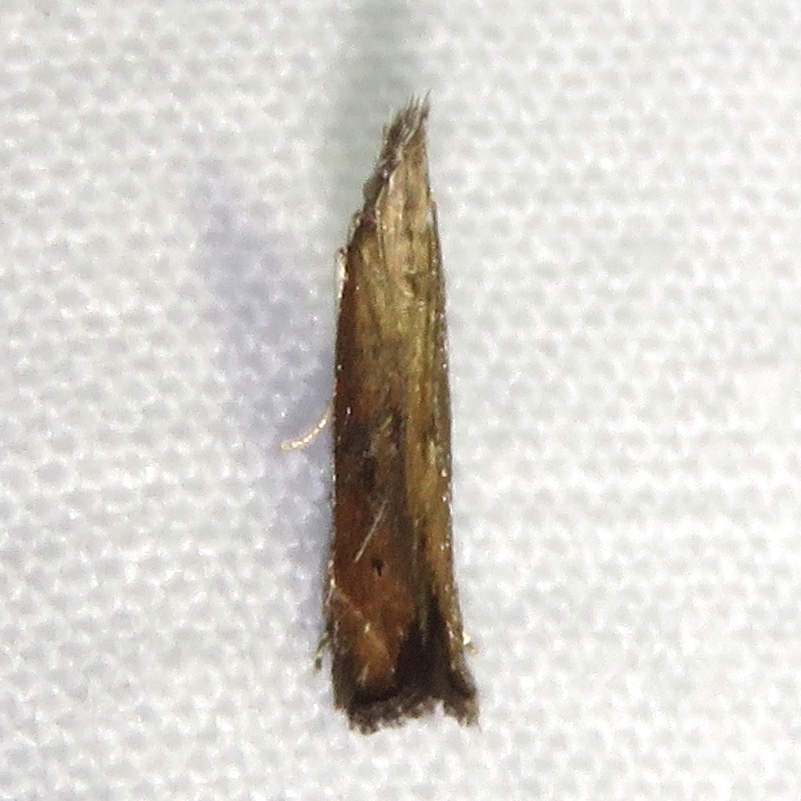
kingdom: Animalia
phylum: Arthropoda
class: Insecta
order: Lepidoptera
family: Gelechiidae
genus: Isophrictis
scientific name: Isophrictis anteliella
